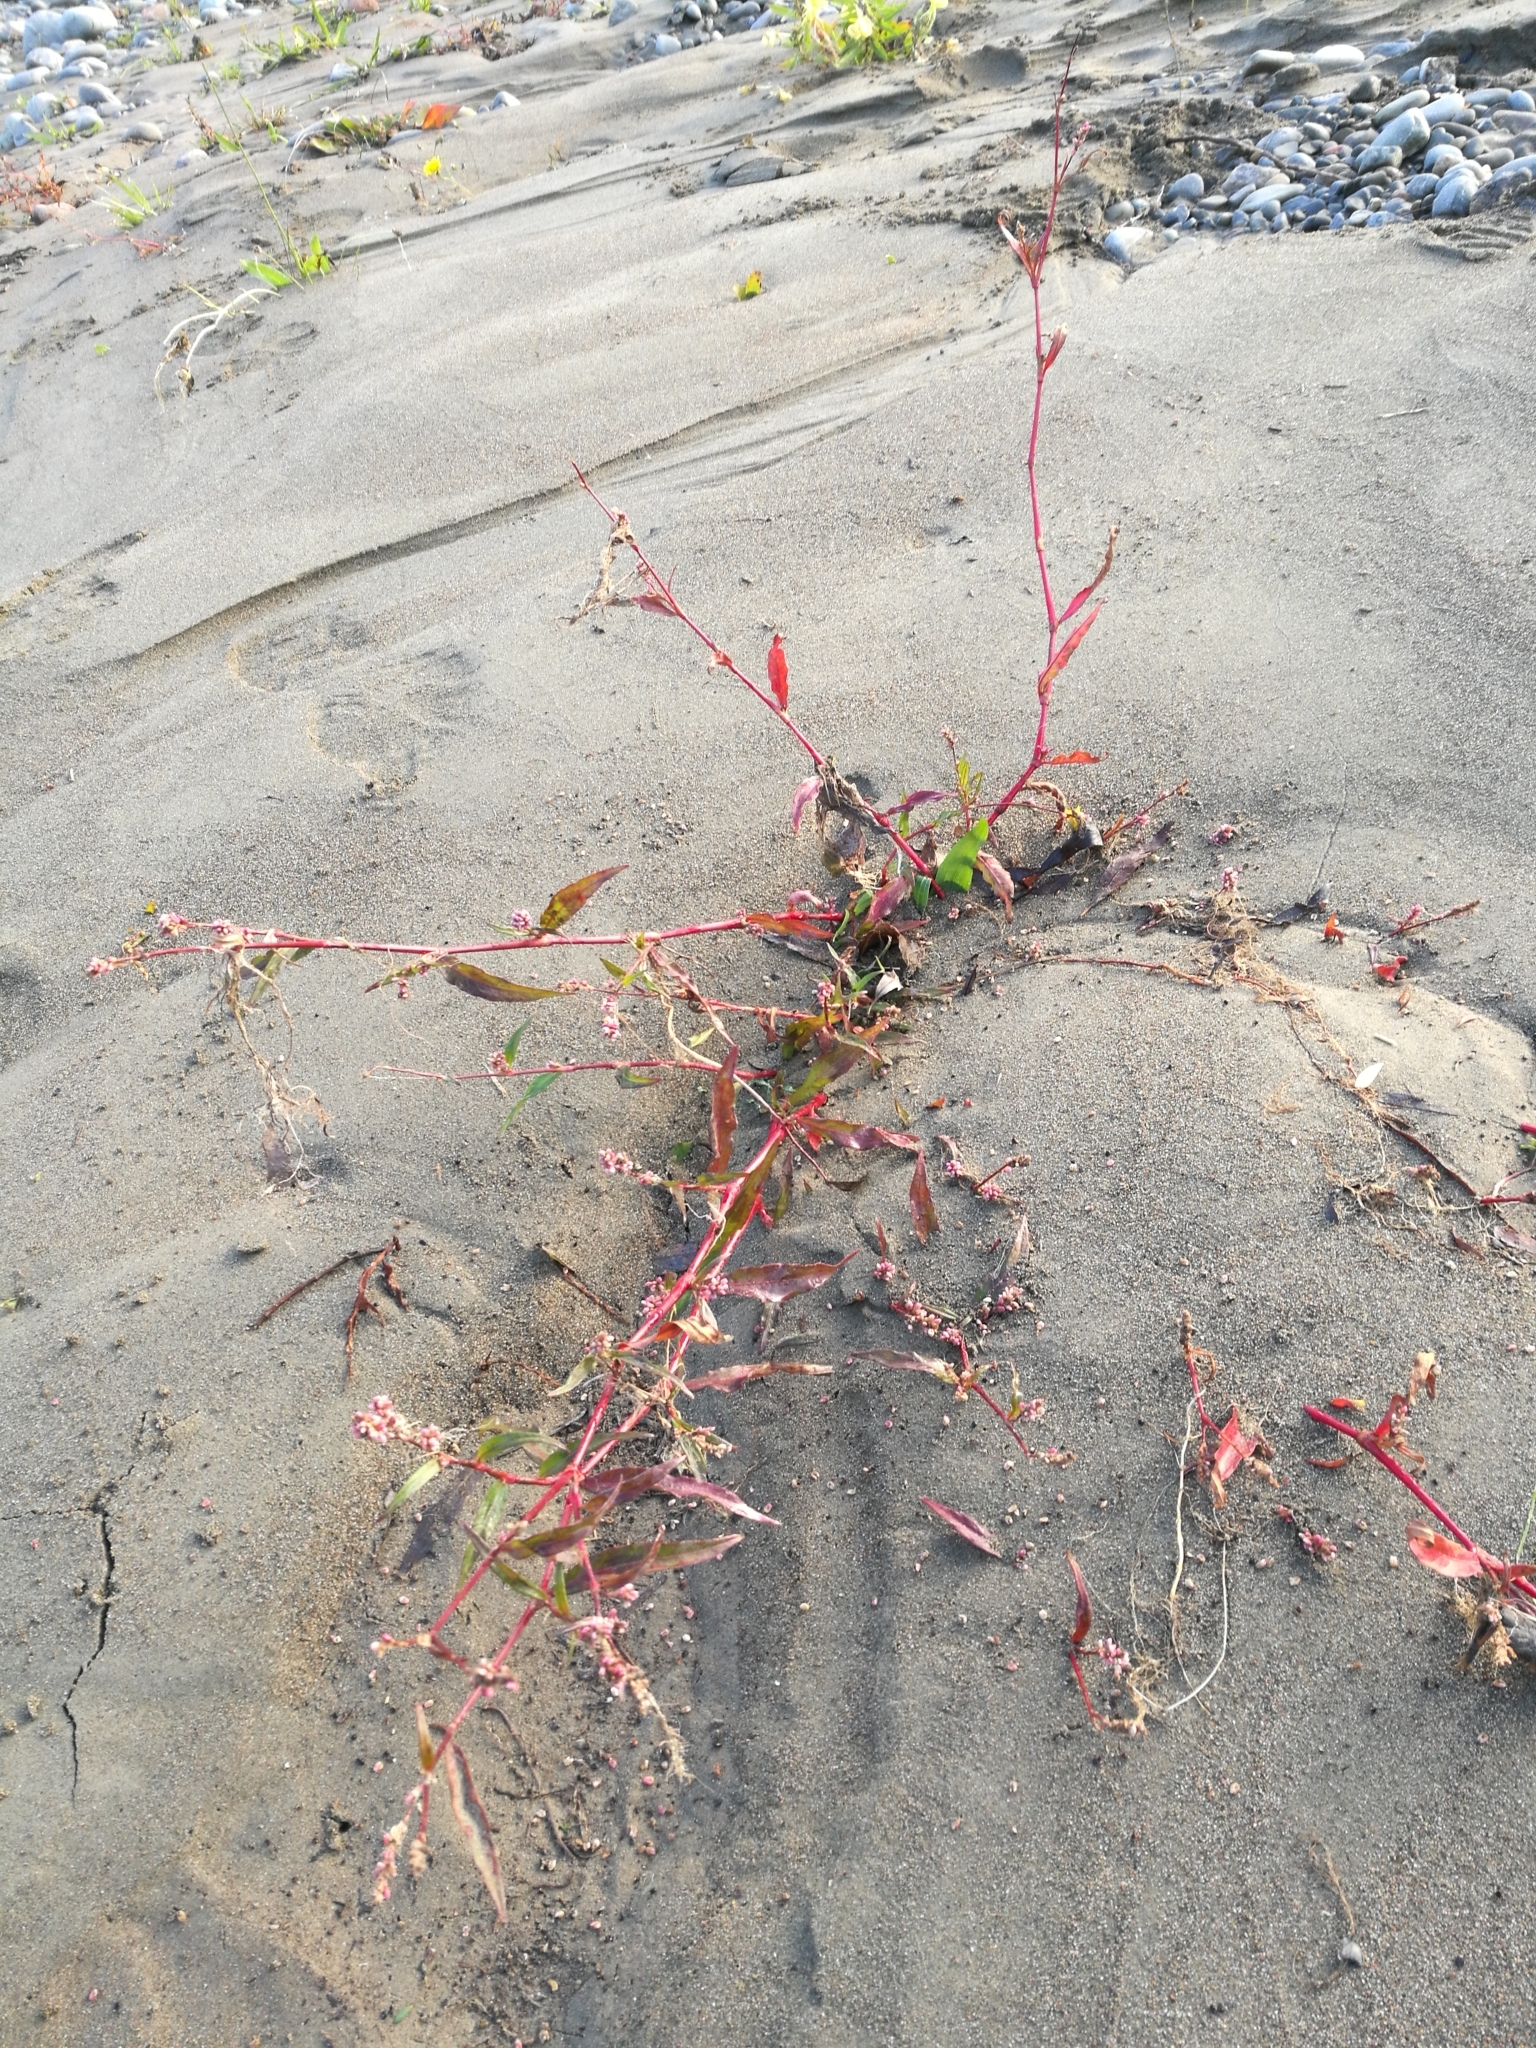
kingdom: Plantae
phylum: Tracheophyta
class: Magnoliopsida
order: Caryophyllales
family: Polygonaceae
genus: Persicaria
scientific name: Persicaria maculosa
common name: Redshank
